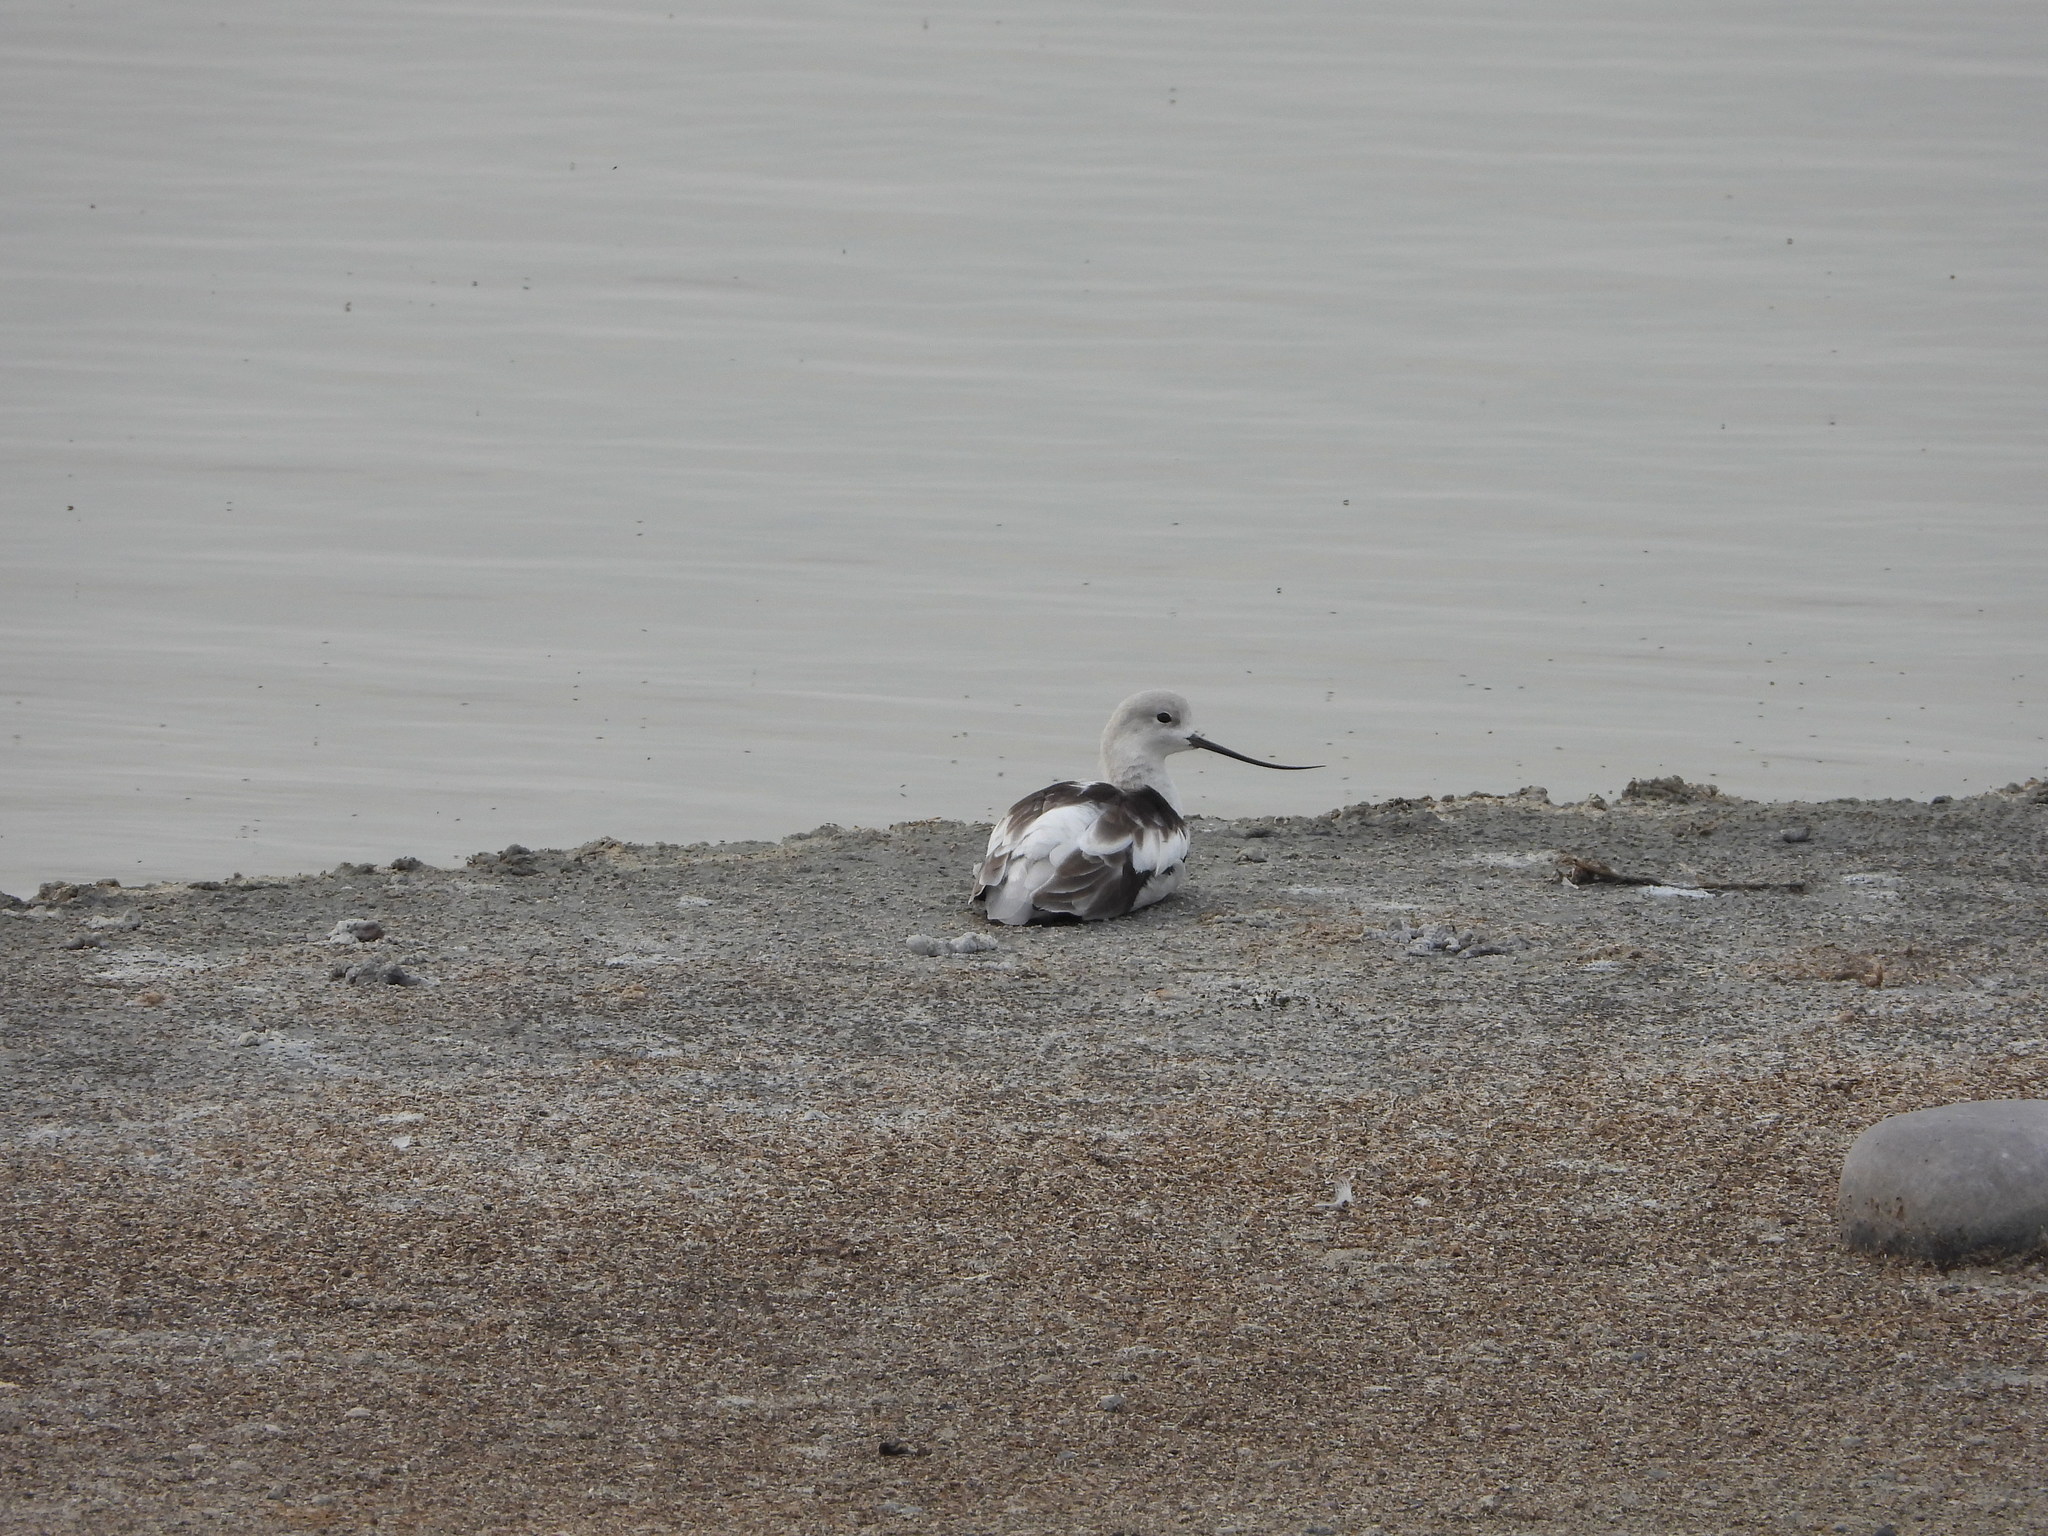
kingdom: Animalia
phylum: Chordata
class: Aves
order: Charadriiformes
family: Recurvirostridae
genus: Recurvirostra
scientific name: Recurvirostra americana
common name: American avocet
